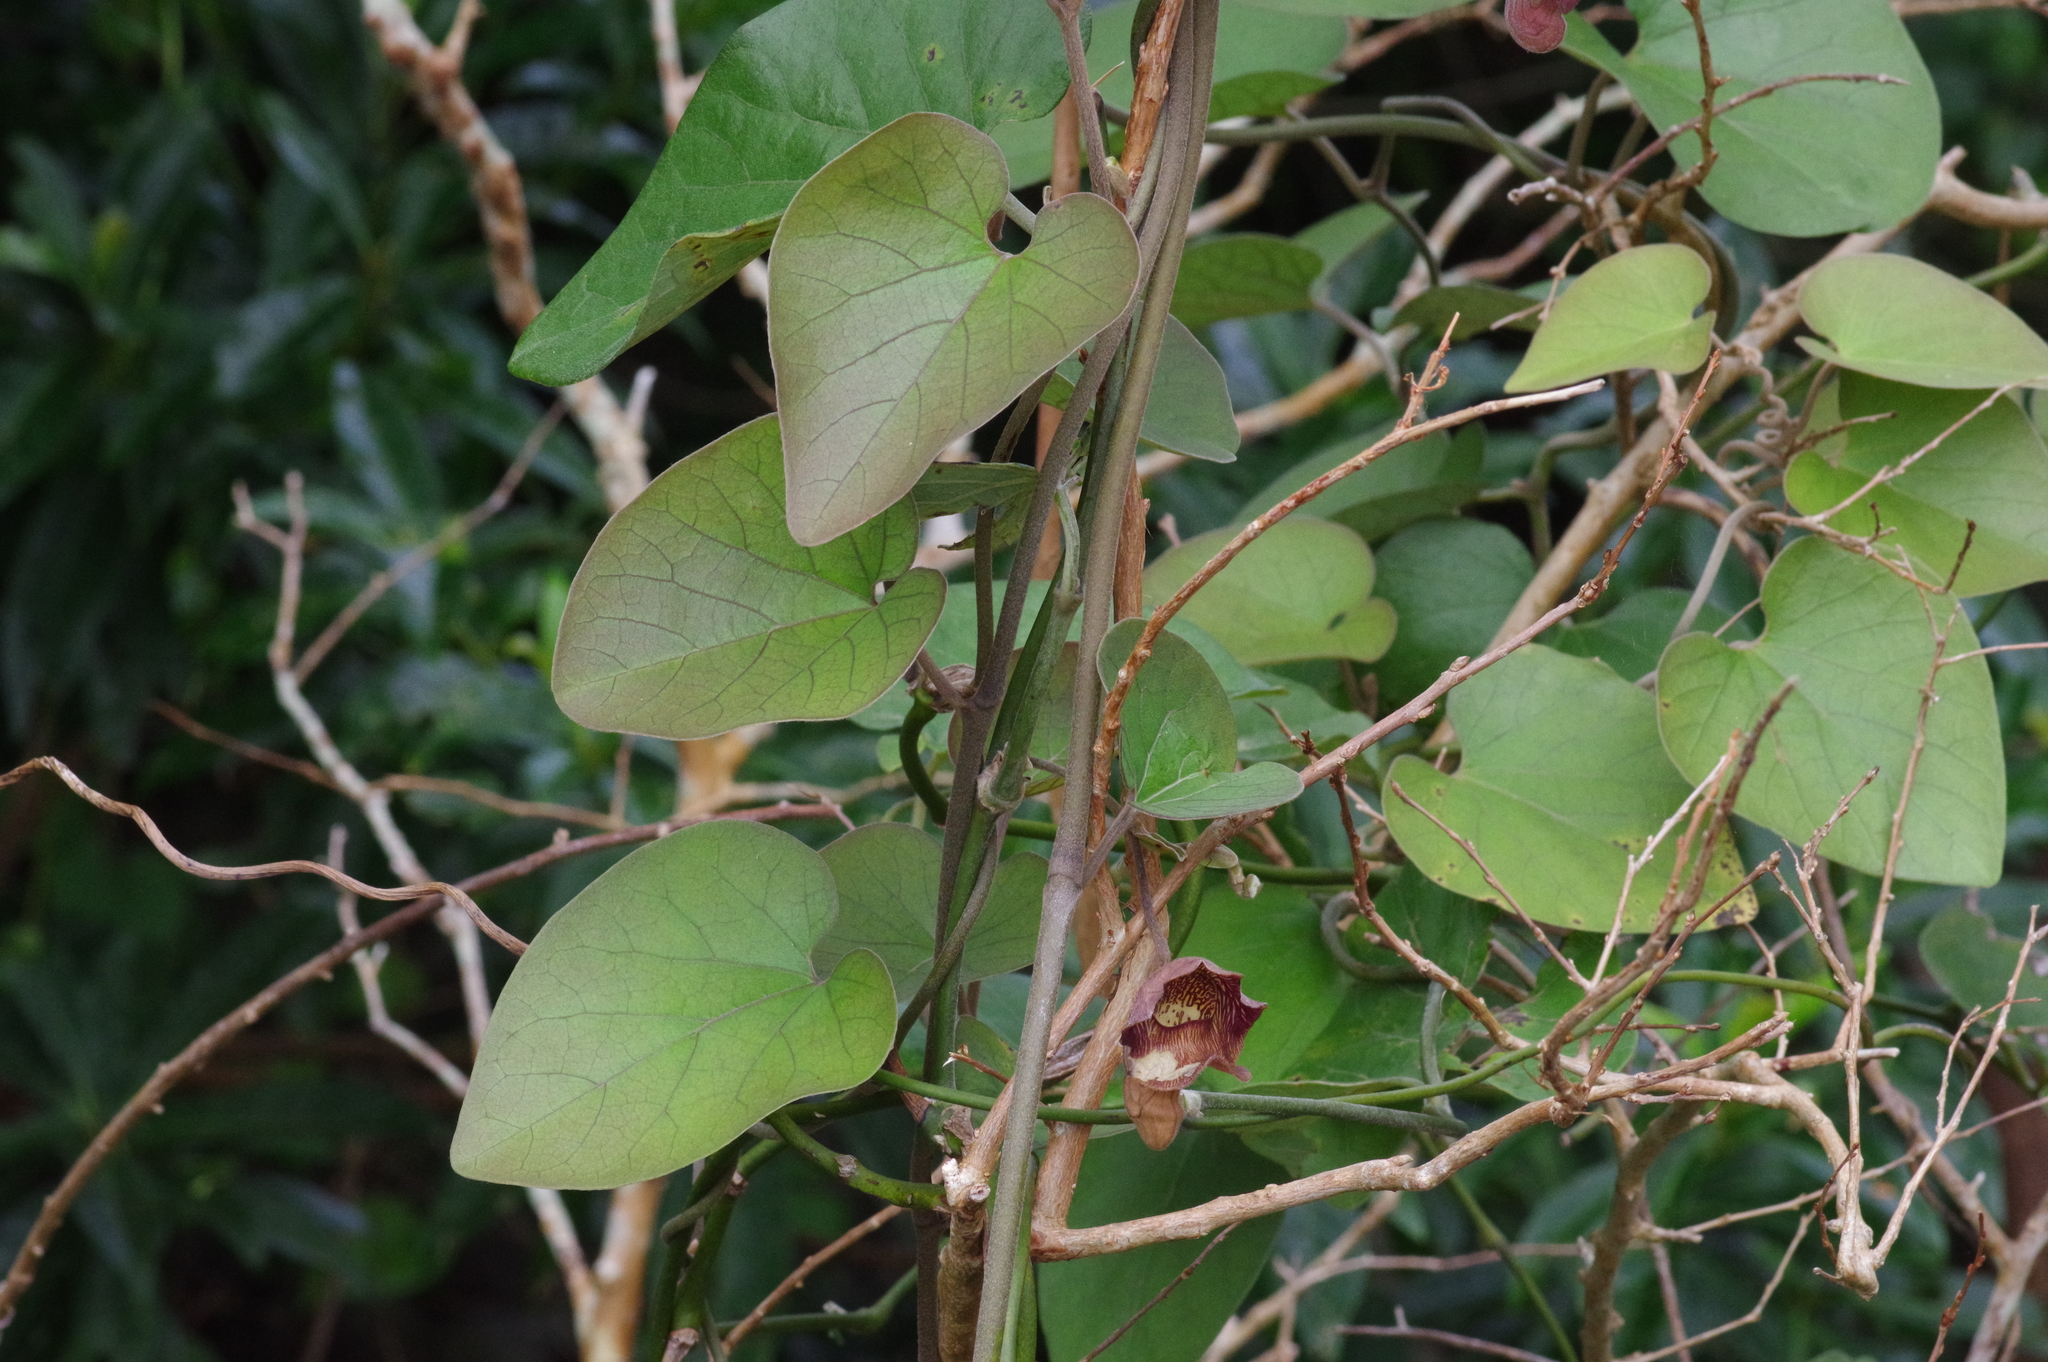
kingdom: Plantae
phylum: Tracheophyta
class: Magnoliopsida
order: Piperales
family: Aristolochiaceae
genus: Isotrema
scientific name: Isotrema liukiuense
